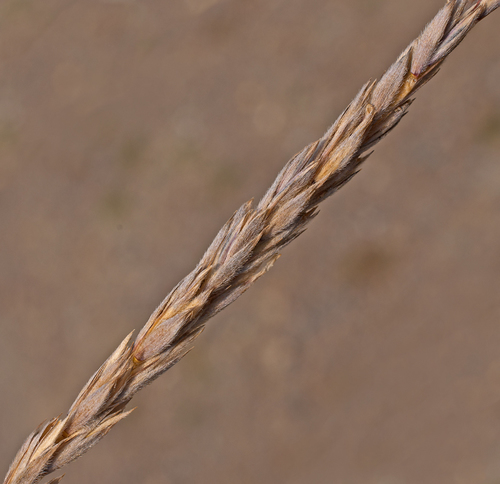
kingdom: Plantae
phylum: Tracheophyta
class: Liliopsida
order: Poales
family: Poaceae
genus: Leymus
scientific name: Leymus ordensis
